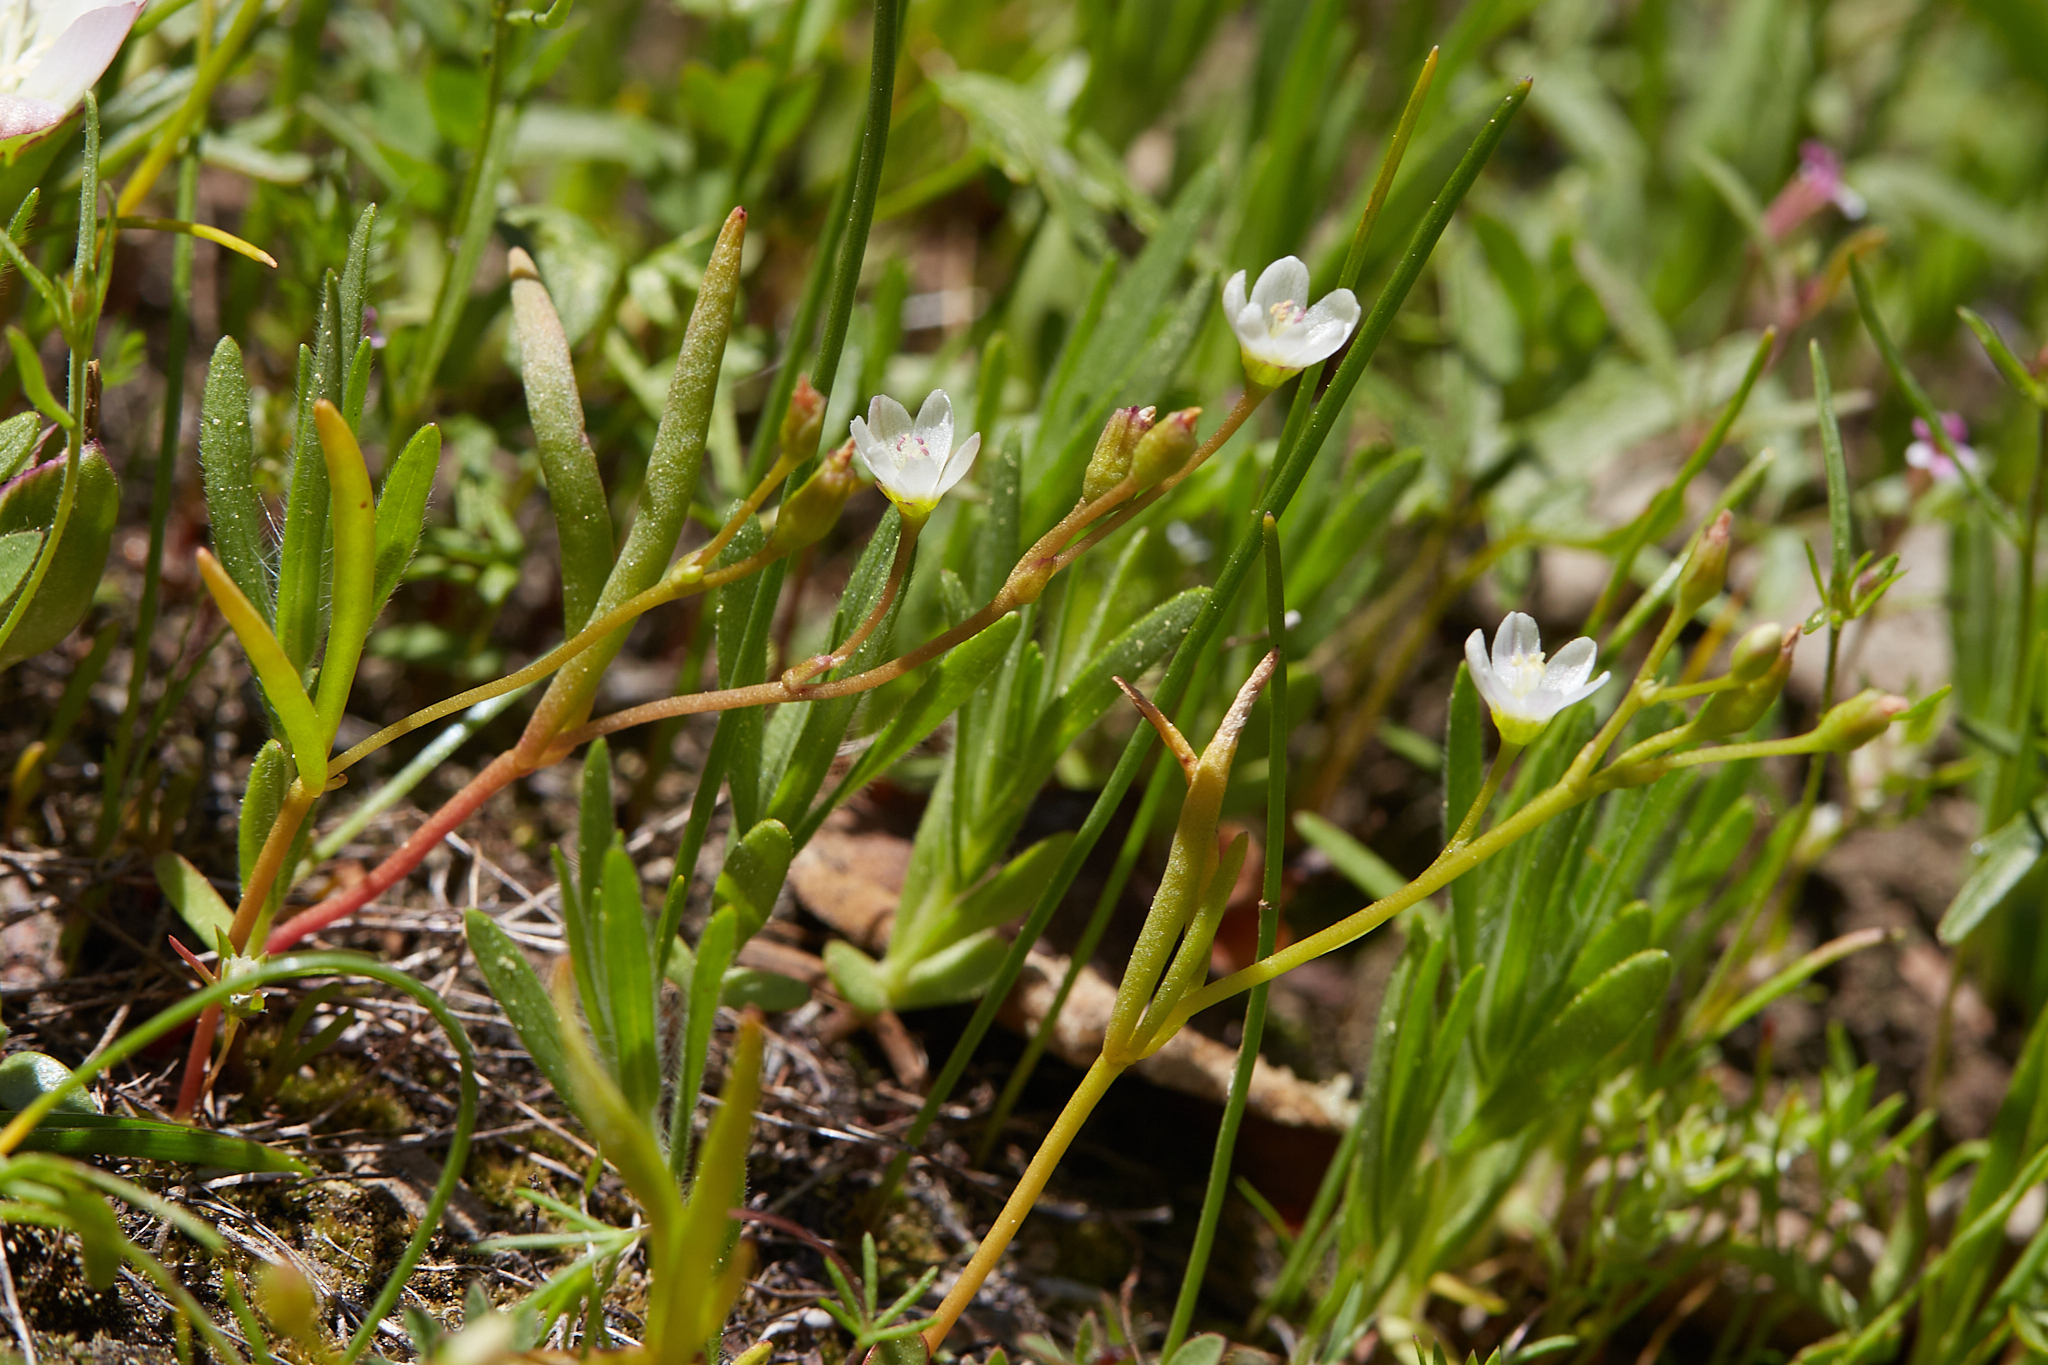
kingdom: Plantae
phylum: Tracheophyta
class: Magnoliopsida
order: Caryophyllales
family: Montiaceae
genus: Lewisia
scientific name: Lewisia triphylla
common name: Three-leaved bitterroot
